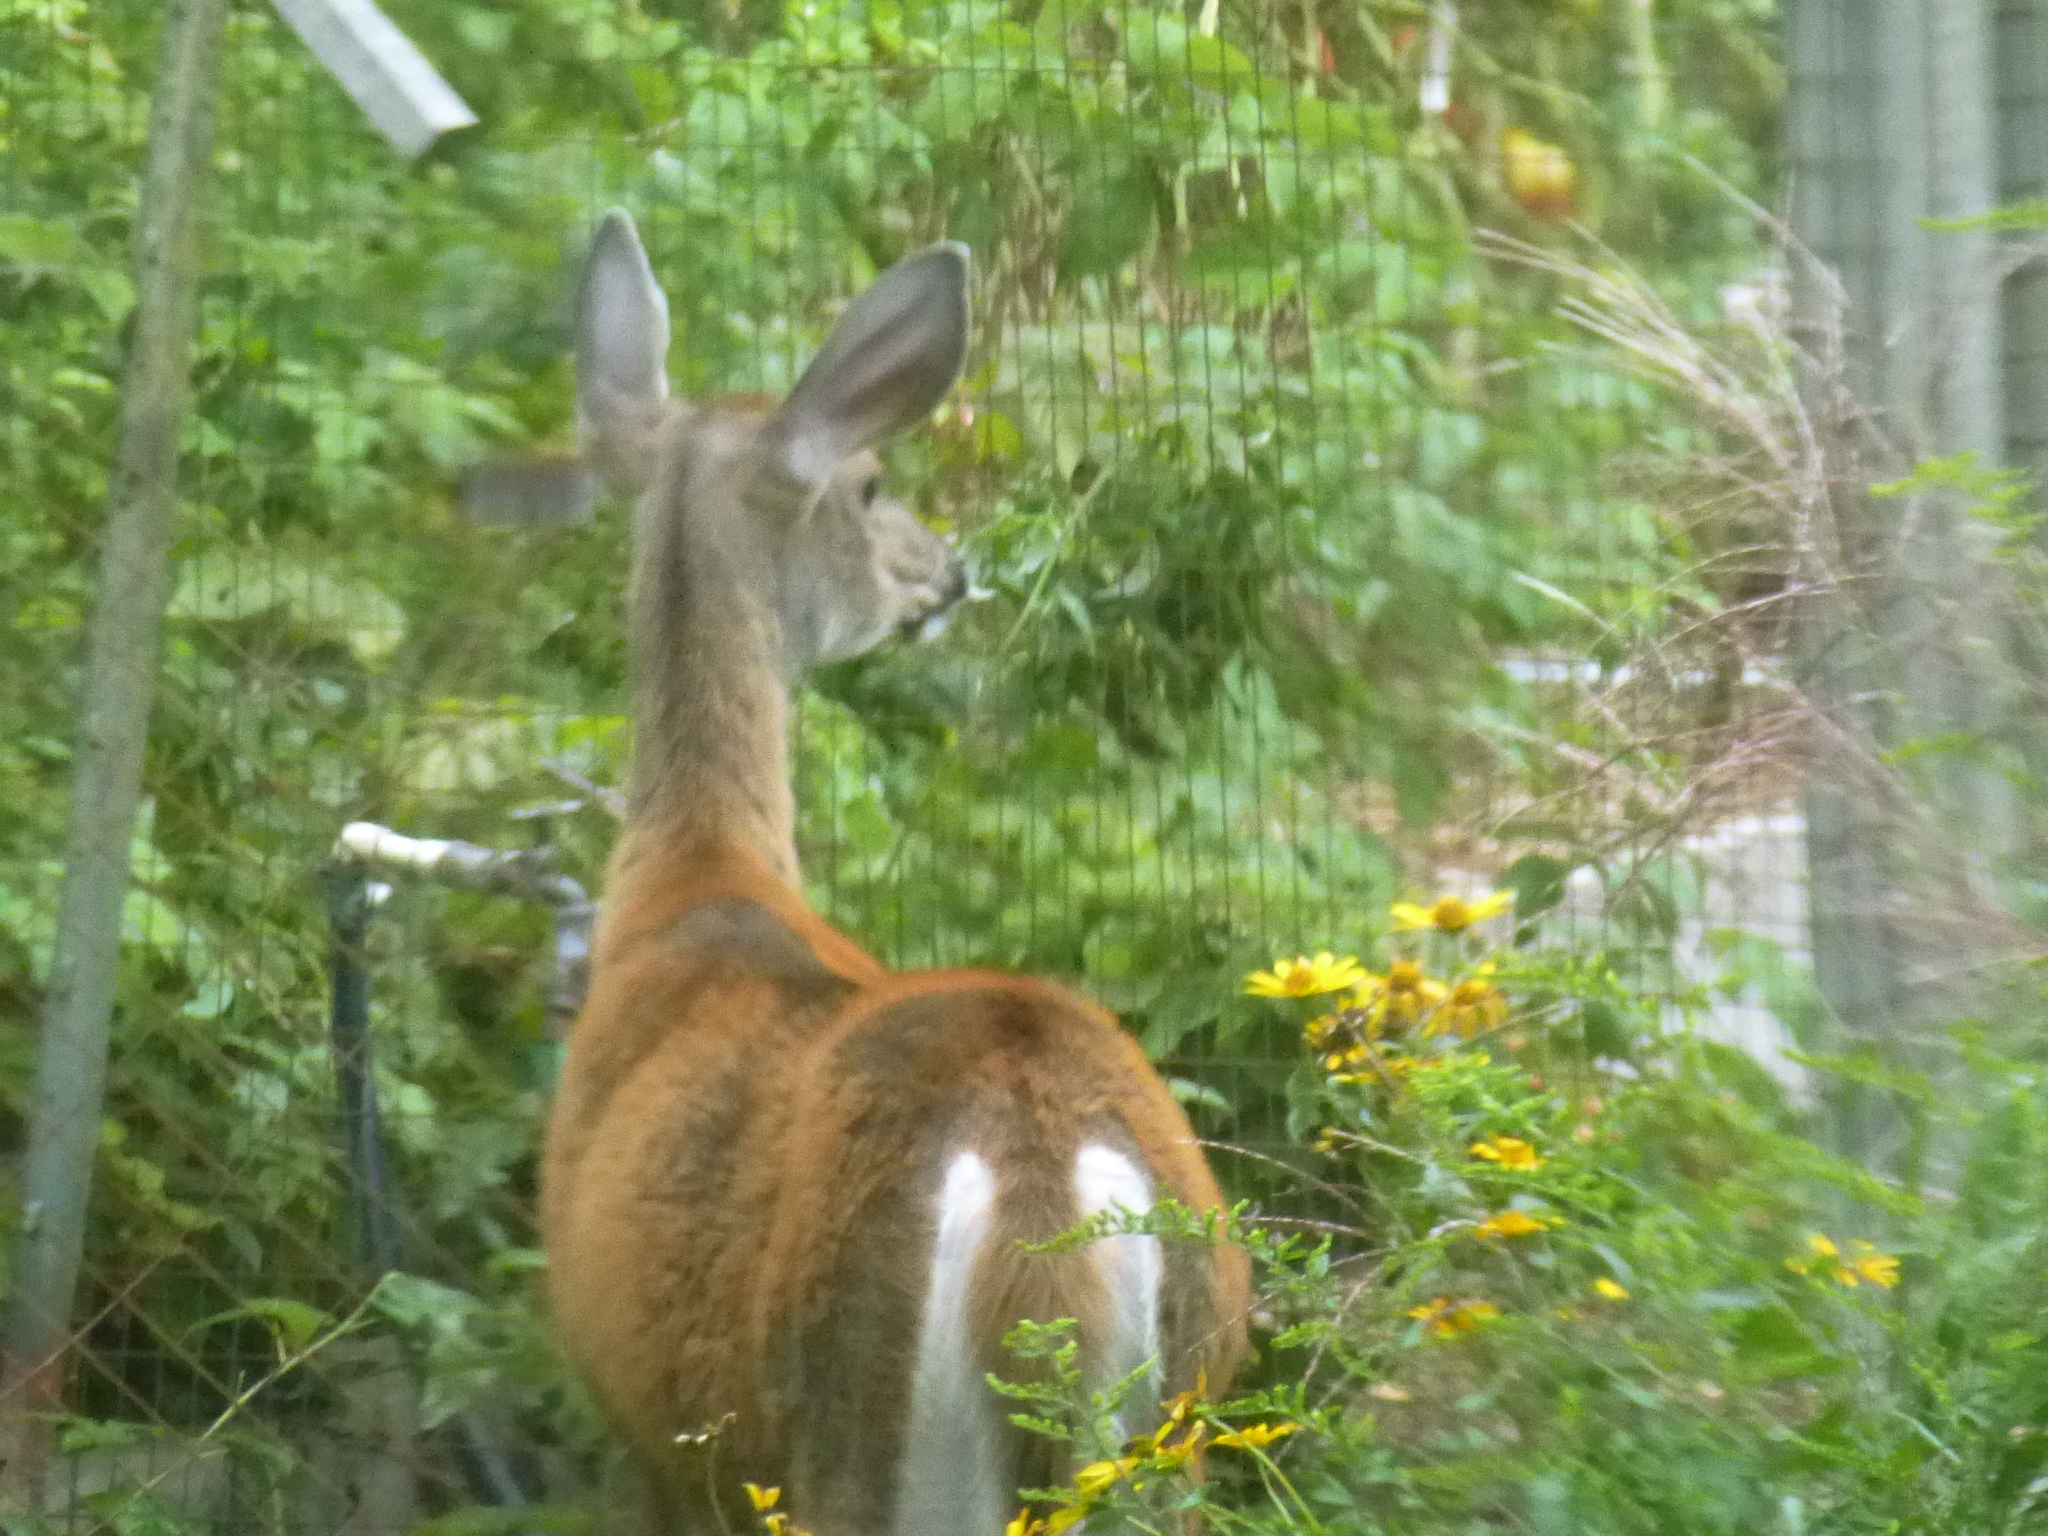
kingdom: Animalia
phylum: Chordata
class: Mammalia
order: Artiodactyla
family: Cervidae
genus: Odocoileus
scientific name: Odocoileus virginianus
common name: White-tailed deer
